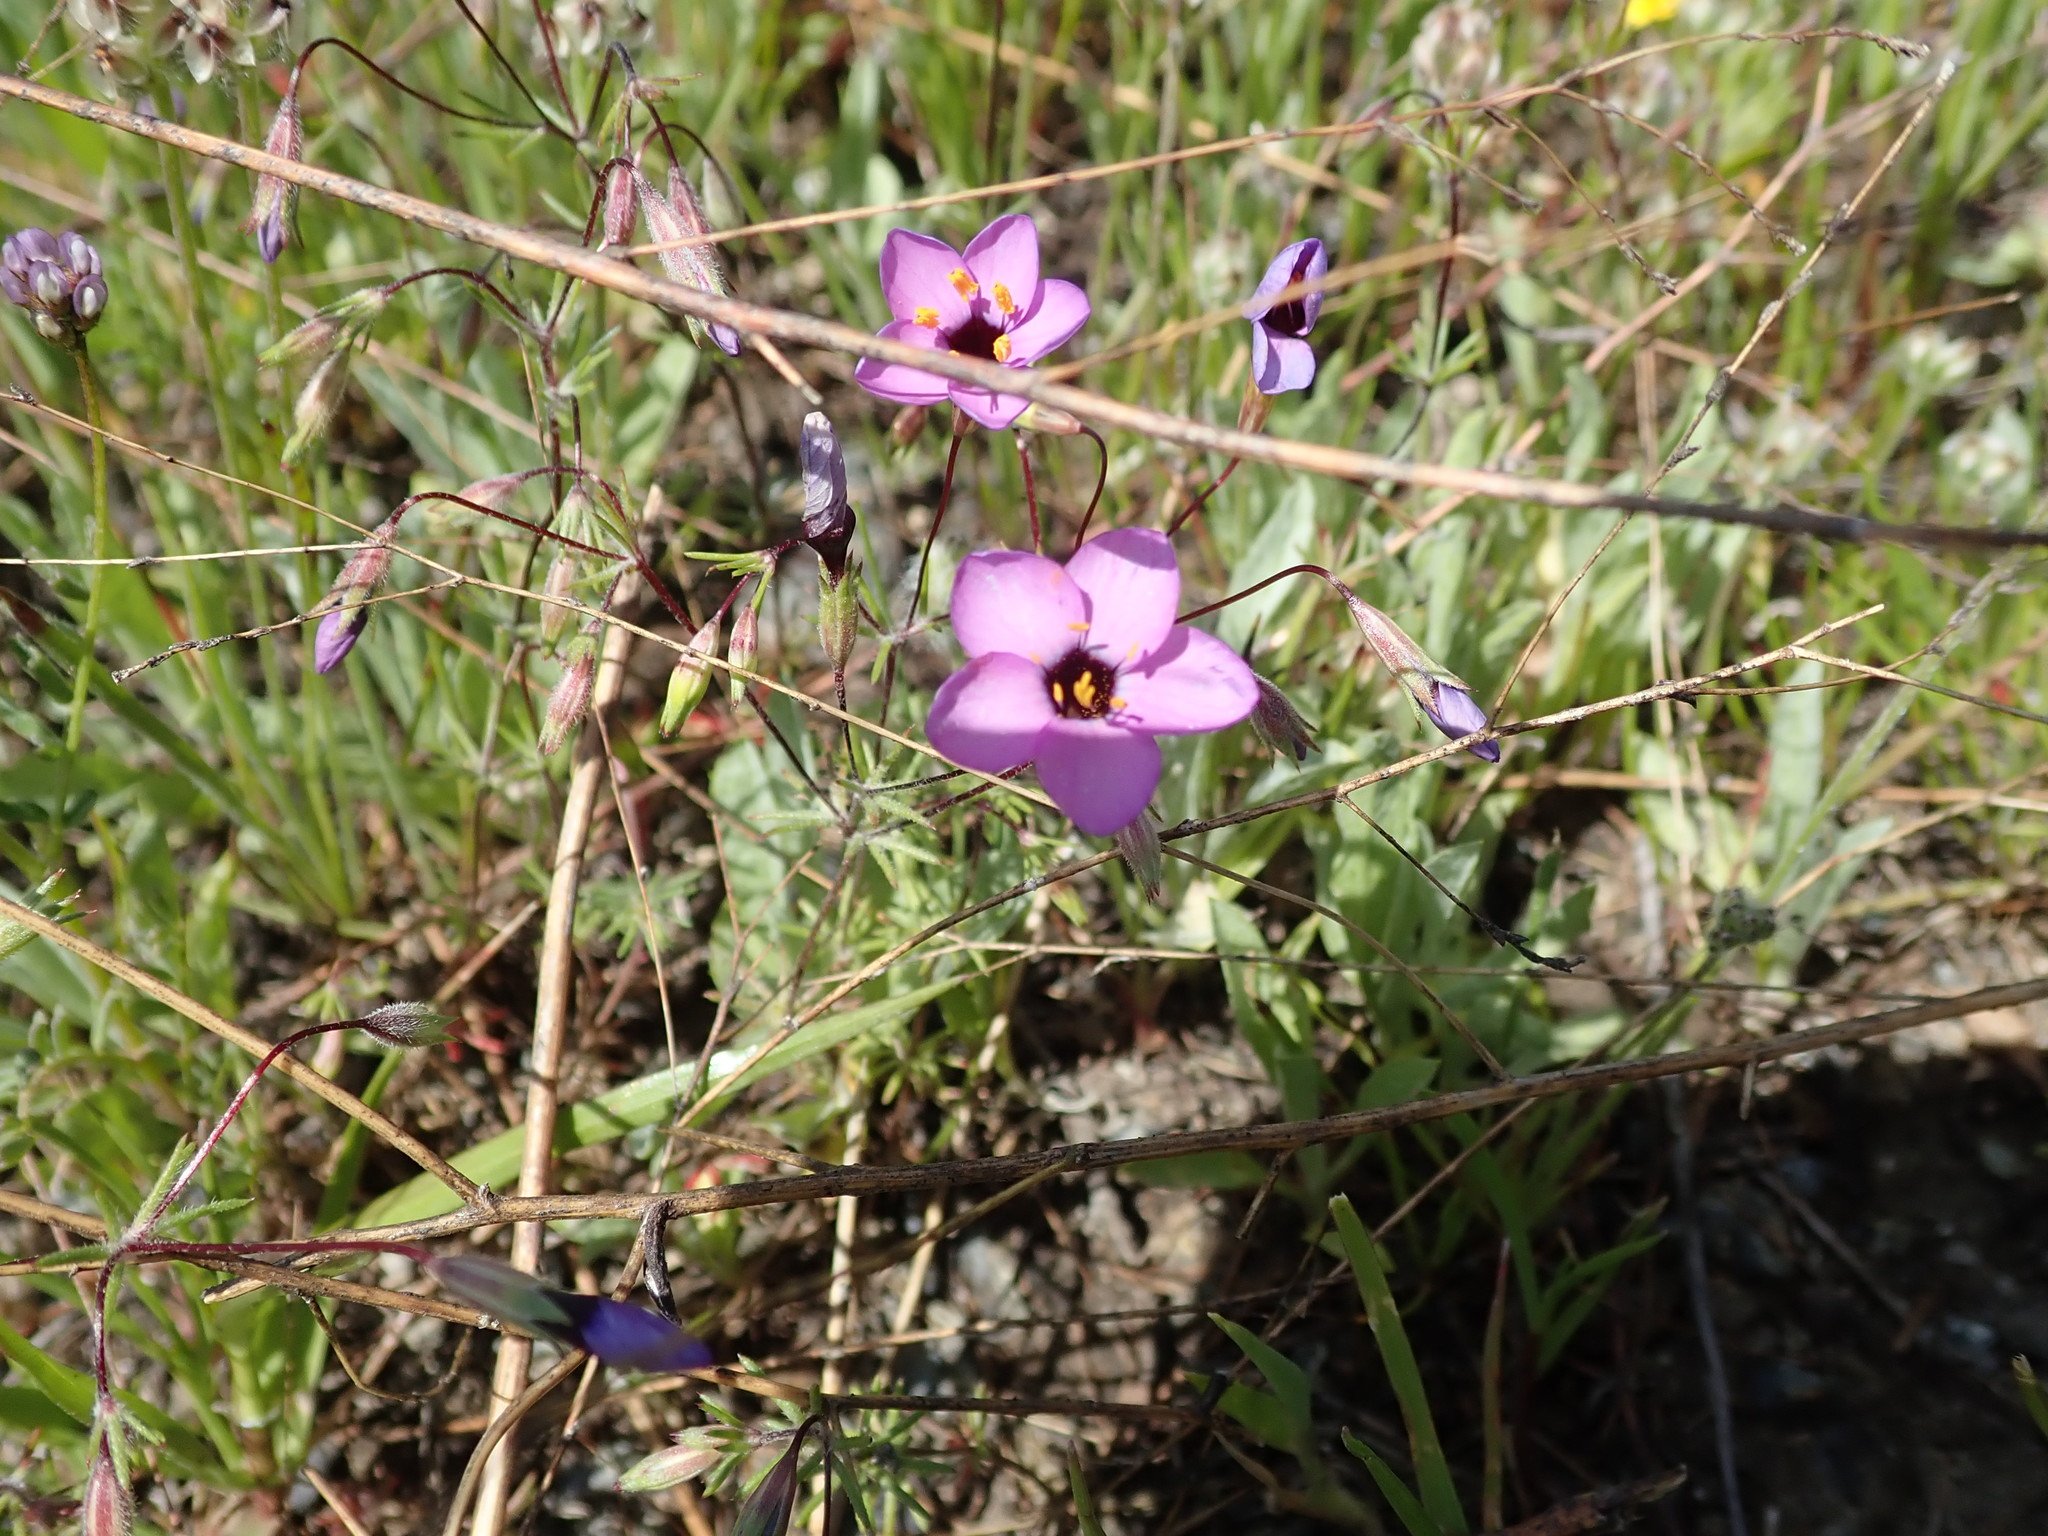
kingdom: Plantae
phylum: Tracheophyta
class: Magnoliopsida
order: Ericales
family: Polemoniaceae
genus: Leptosiphon
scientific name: Leptosiphon ambiguus
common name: Serpentine linanthus
